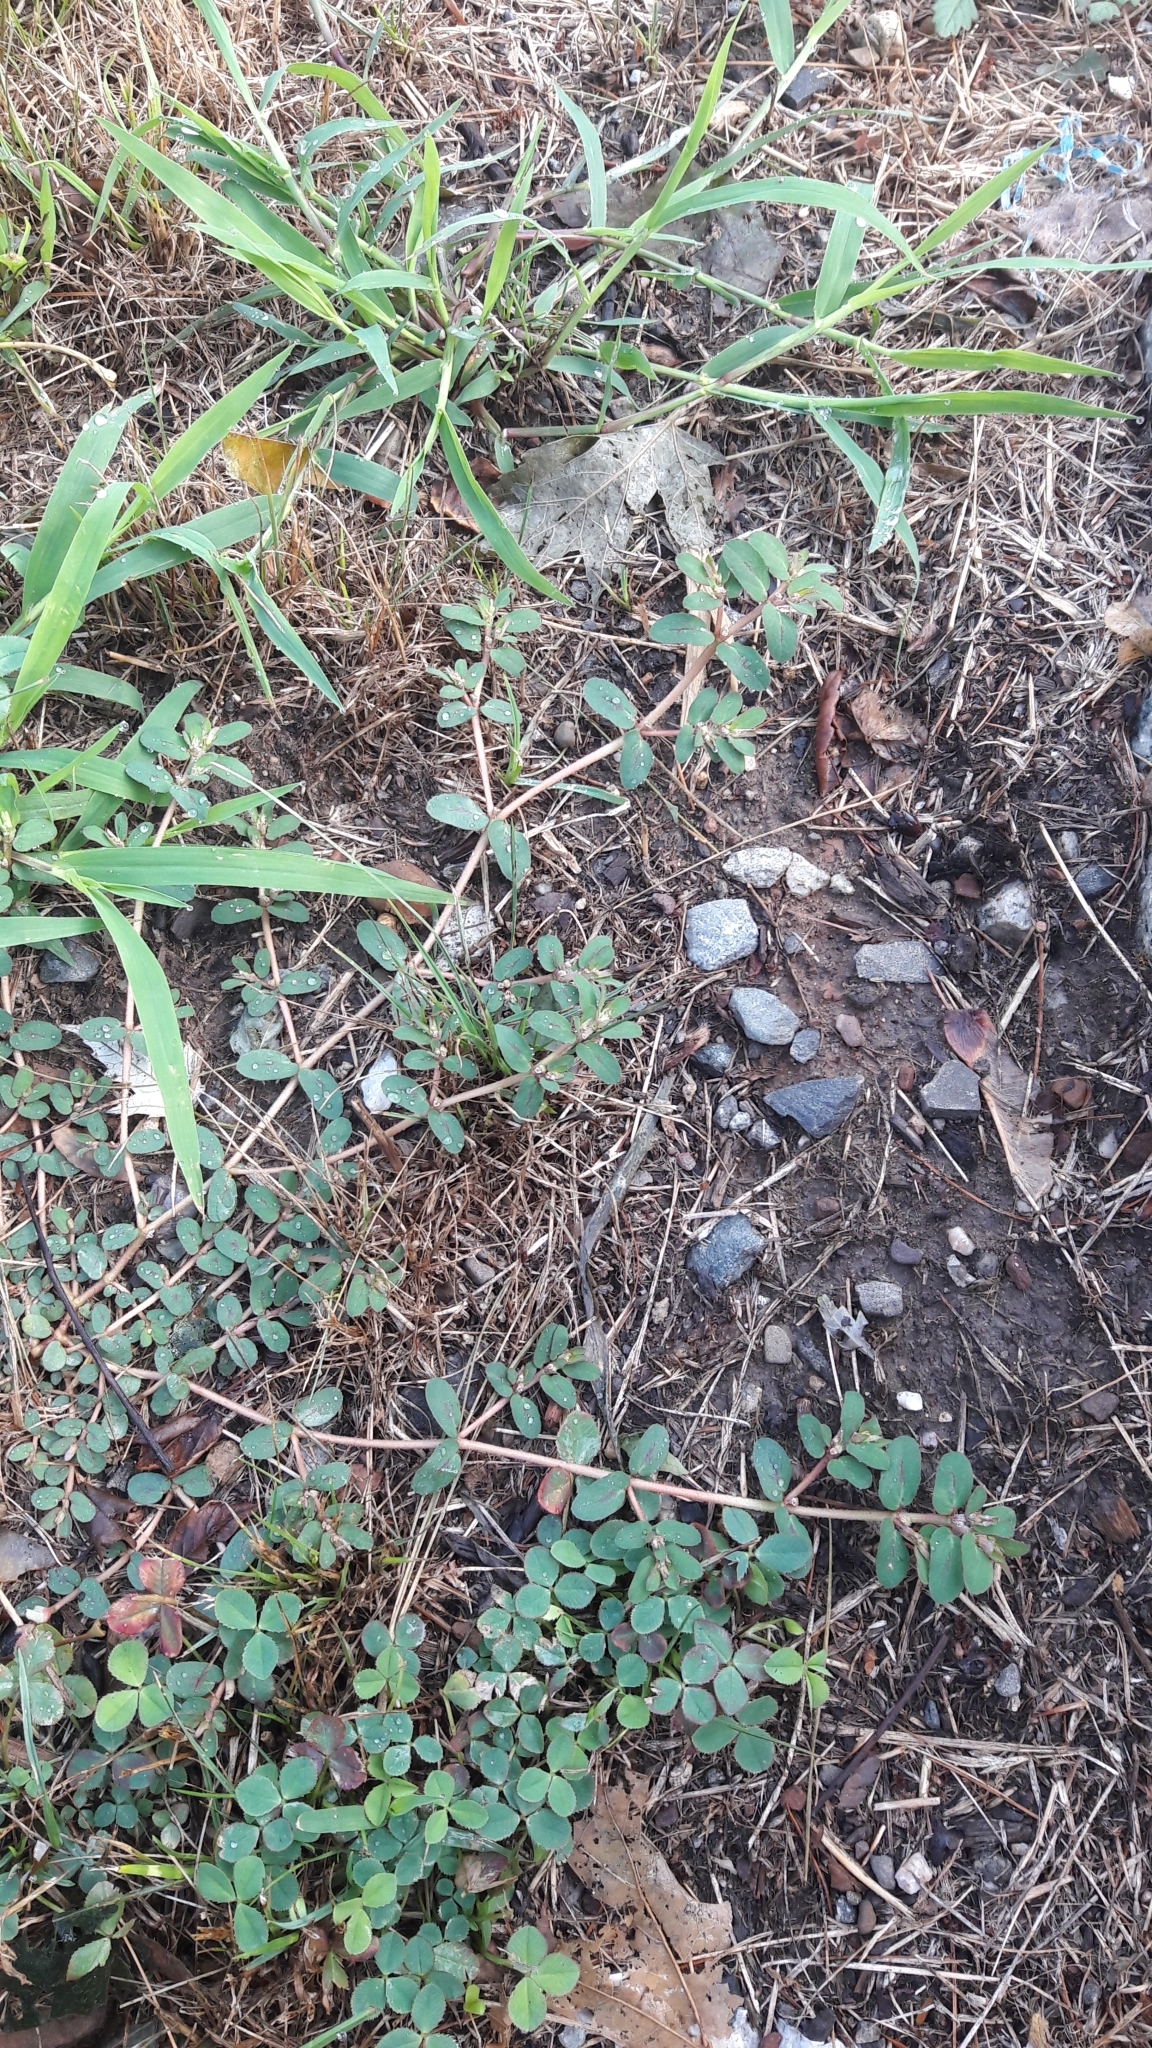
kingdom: Plantae
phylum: Tracheophyta
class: Magnoliopsida
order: Malpighiales
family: Euphorbiaceae
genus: Euphorbia
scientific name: Euphorbia maculata
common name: Spotted spurge
